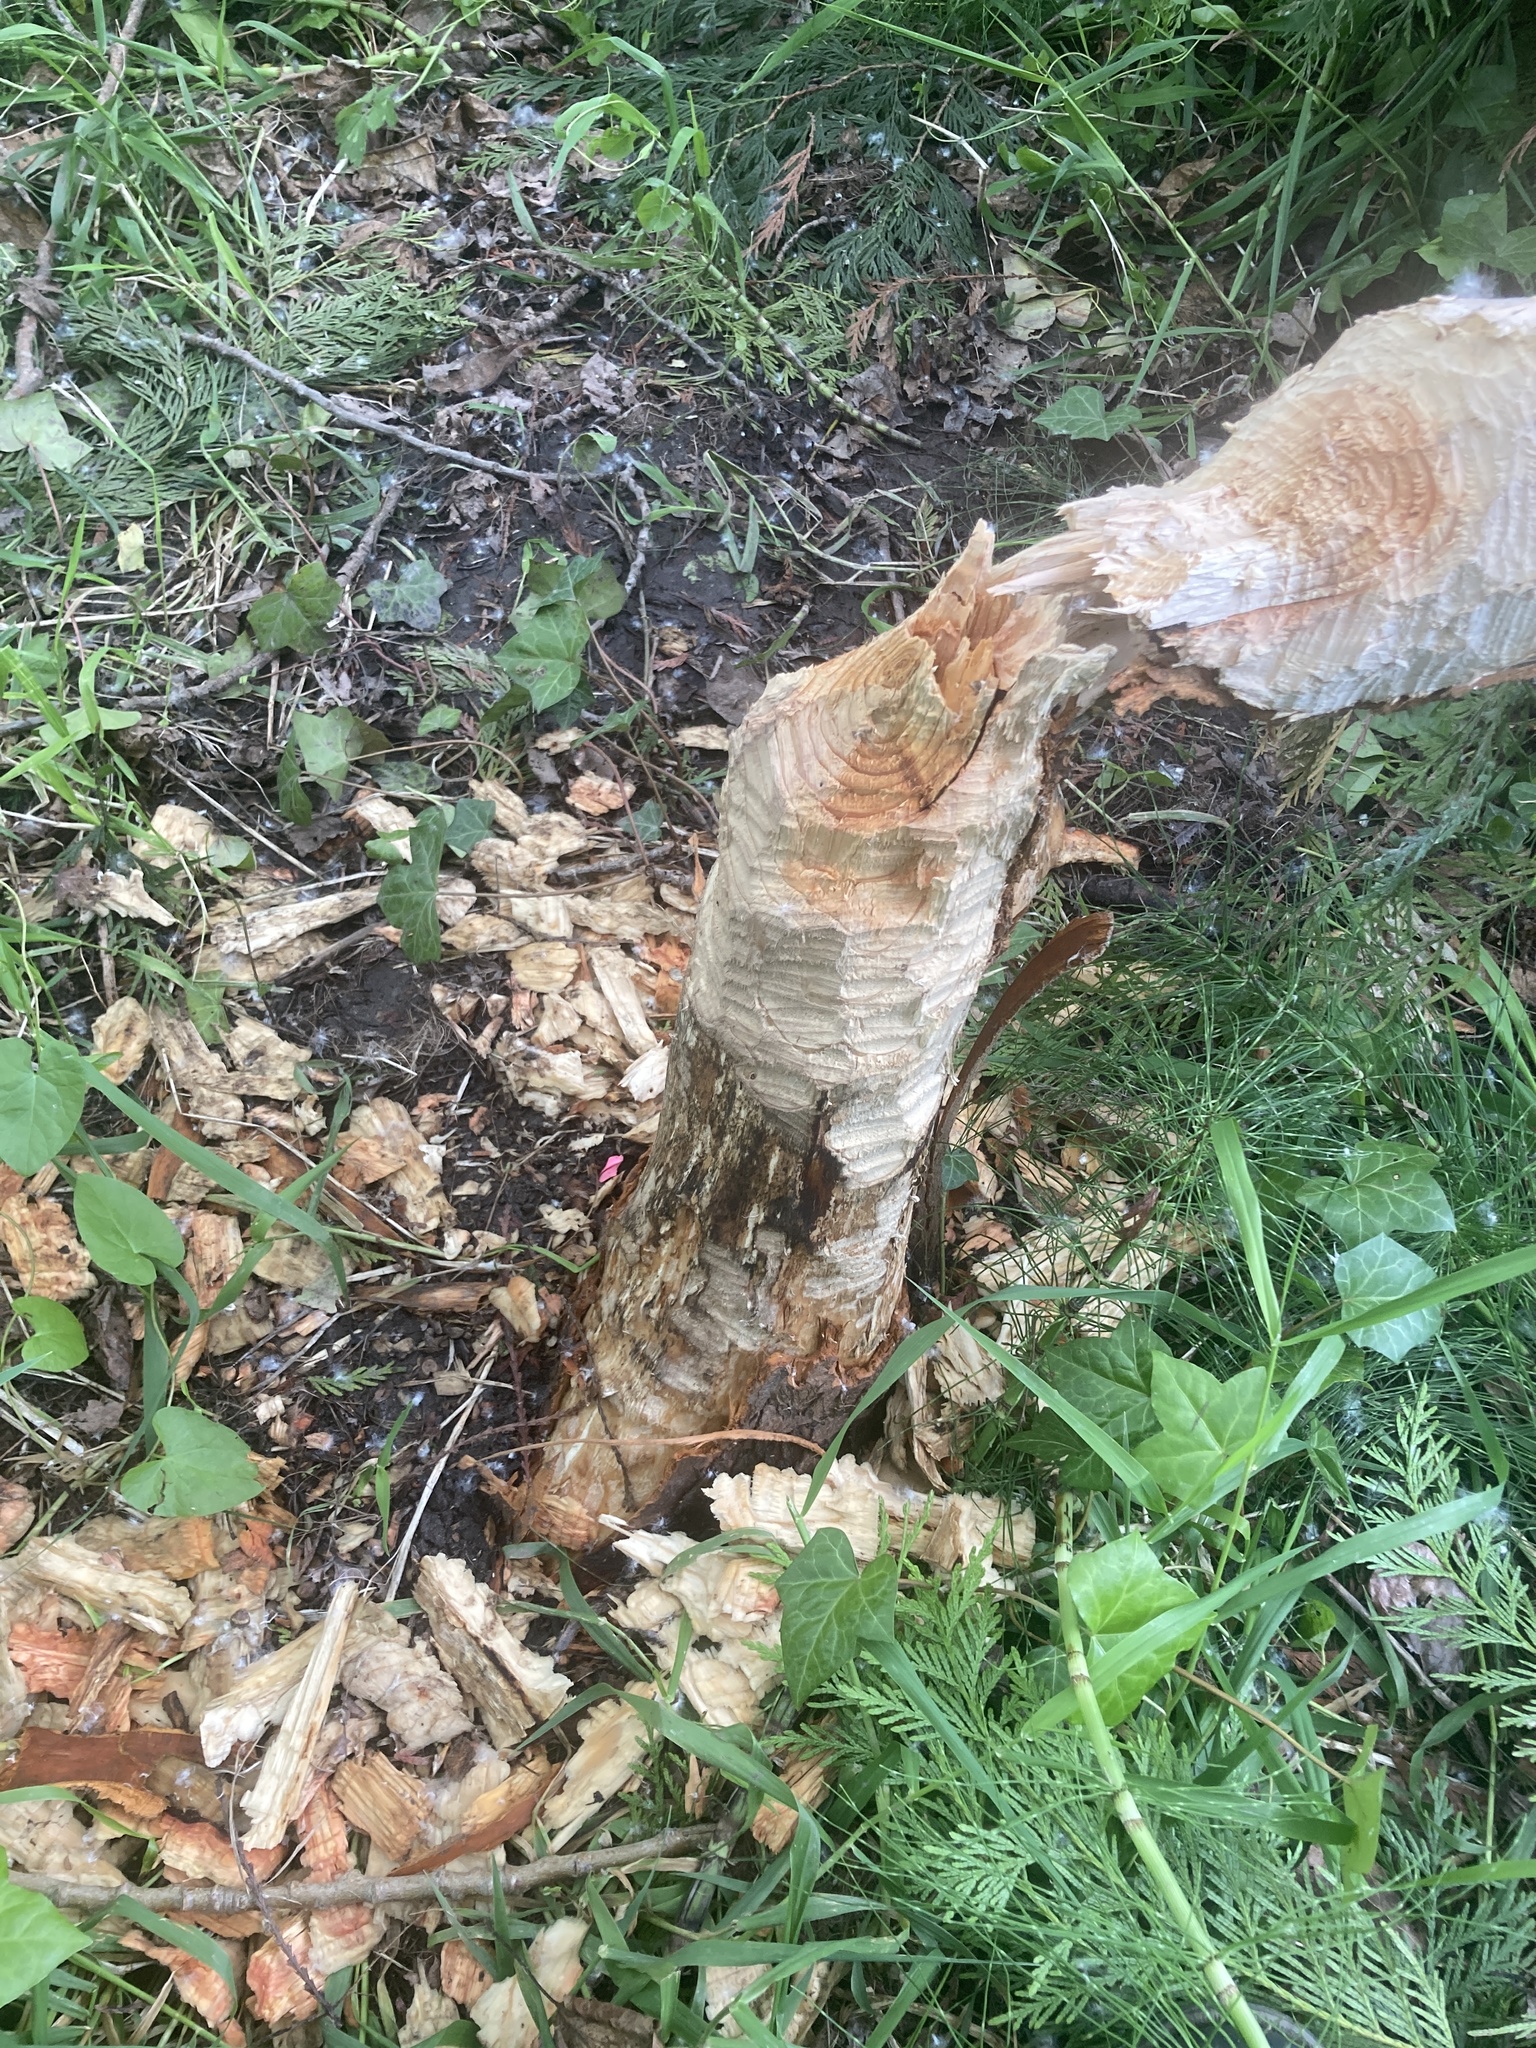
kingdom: Animalia
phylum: Chordata
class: Mammalia
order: Rodentia
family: Castoridae
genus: Castor
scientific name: Castor canadensis
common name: American beaver
